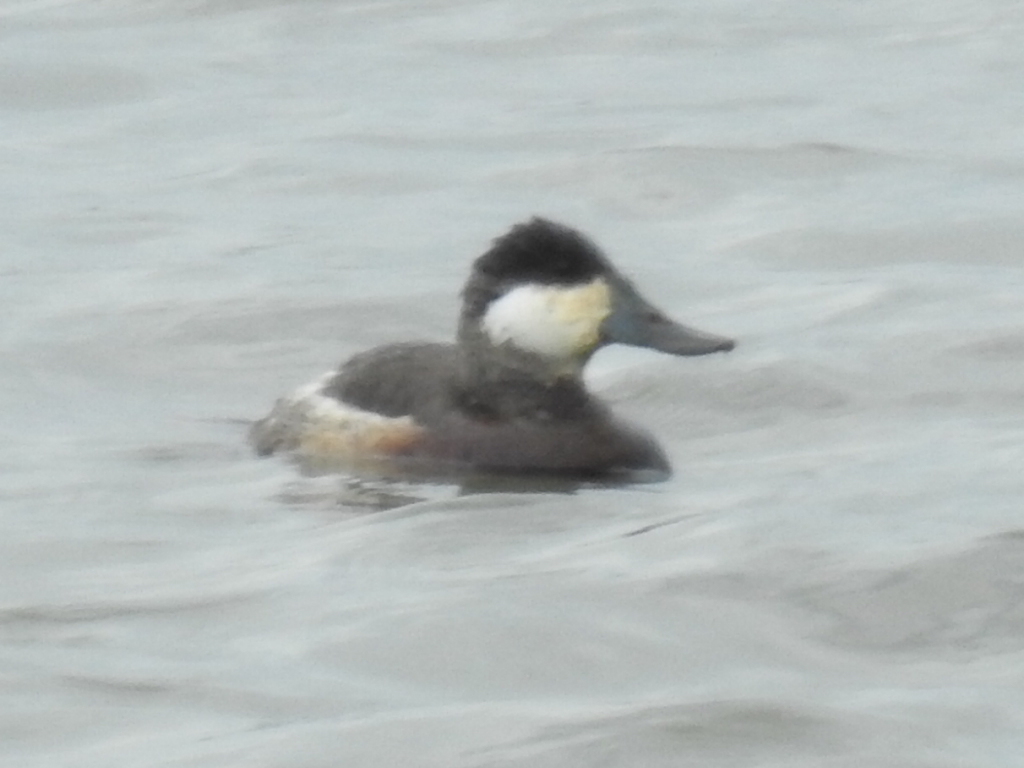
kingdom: Animalia
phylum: Chordata
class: Aves
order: Anseriformes
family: Anatidae
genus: Oxyura
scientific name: Oxyura jamaicensis
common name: Ruddy duck
